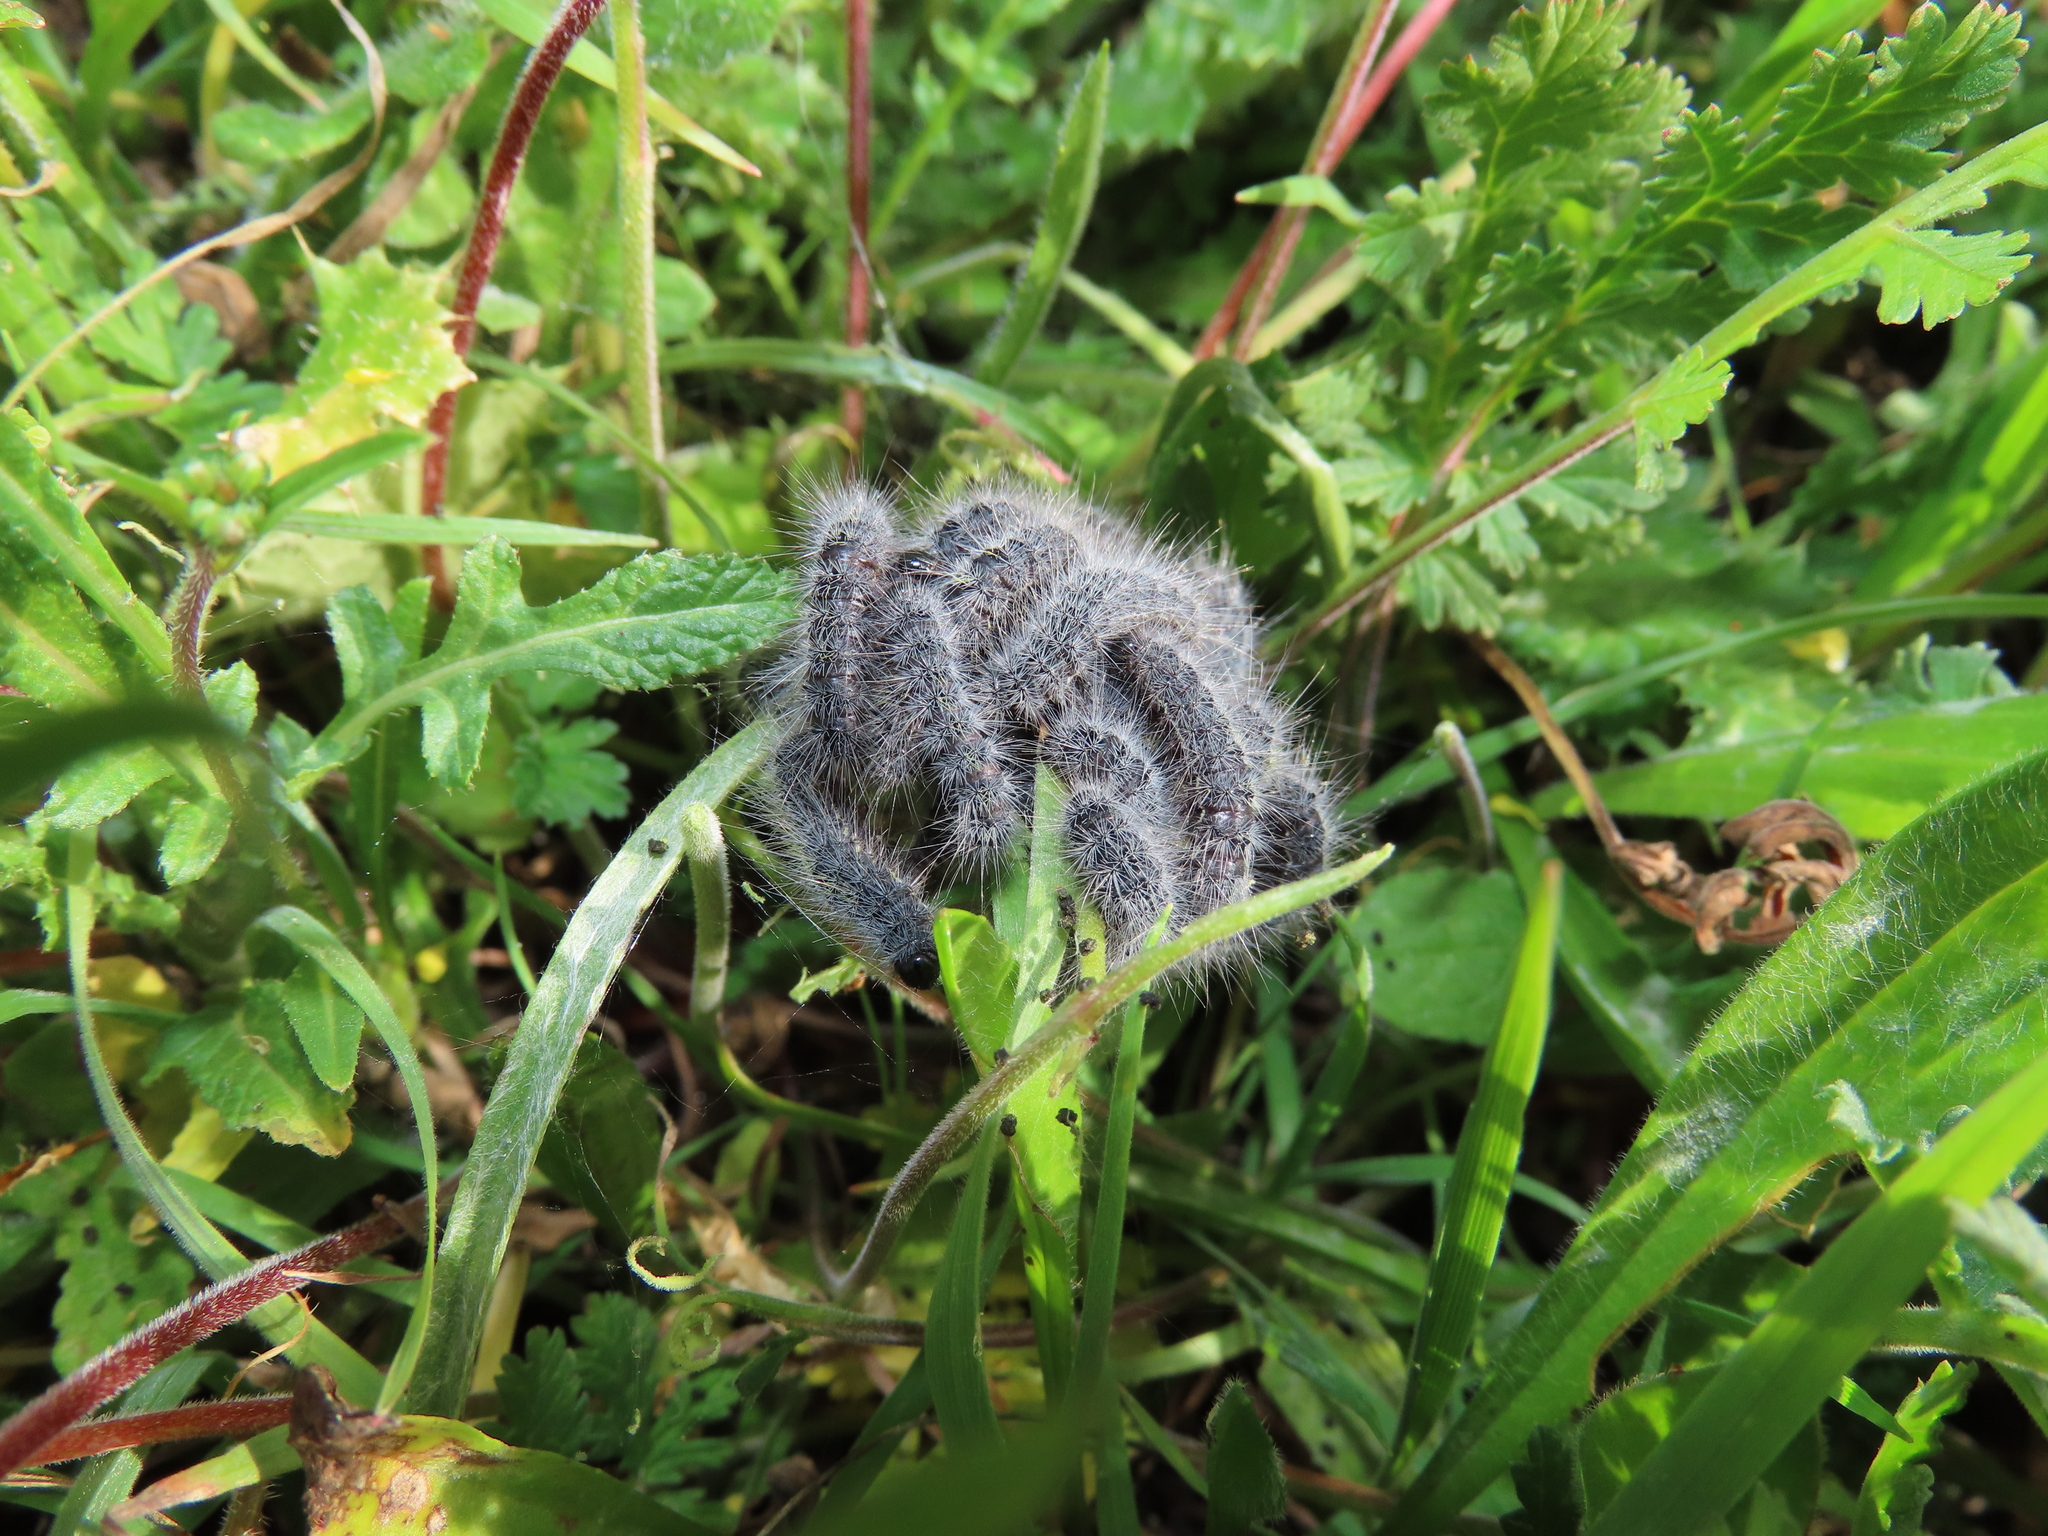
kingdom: Animalia
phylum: Arthropoda
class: Insecta
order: Lepidoptera
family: Notodontidae
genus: Thaumetopoea
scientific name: Thaumetopoea herculeana
